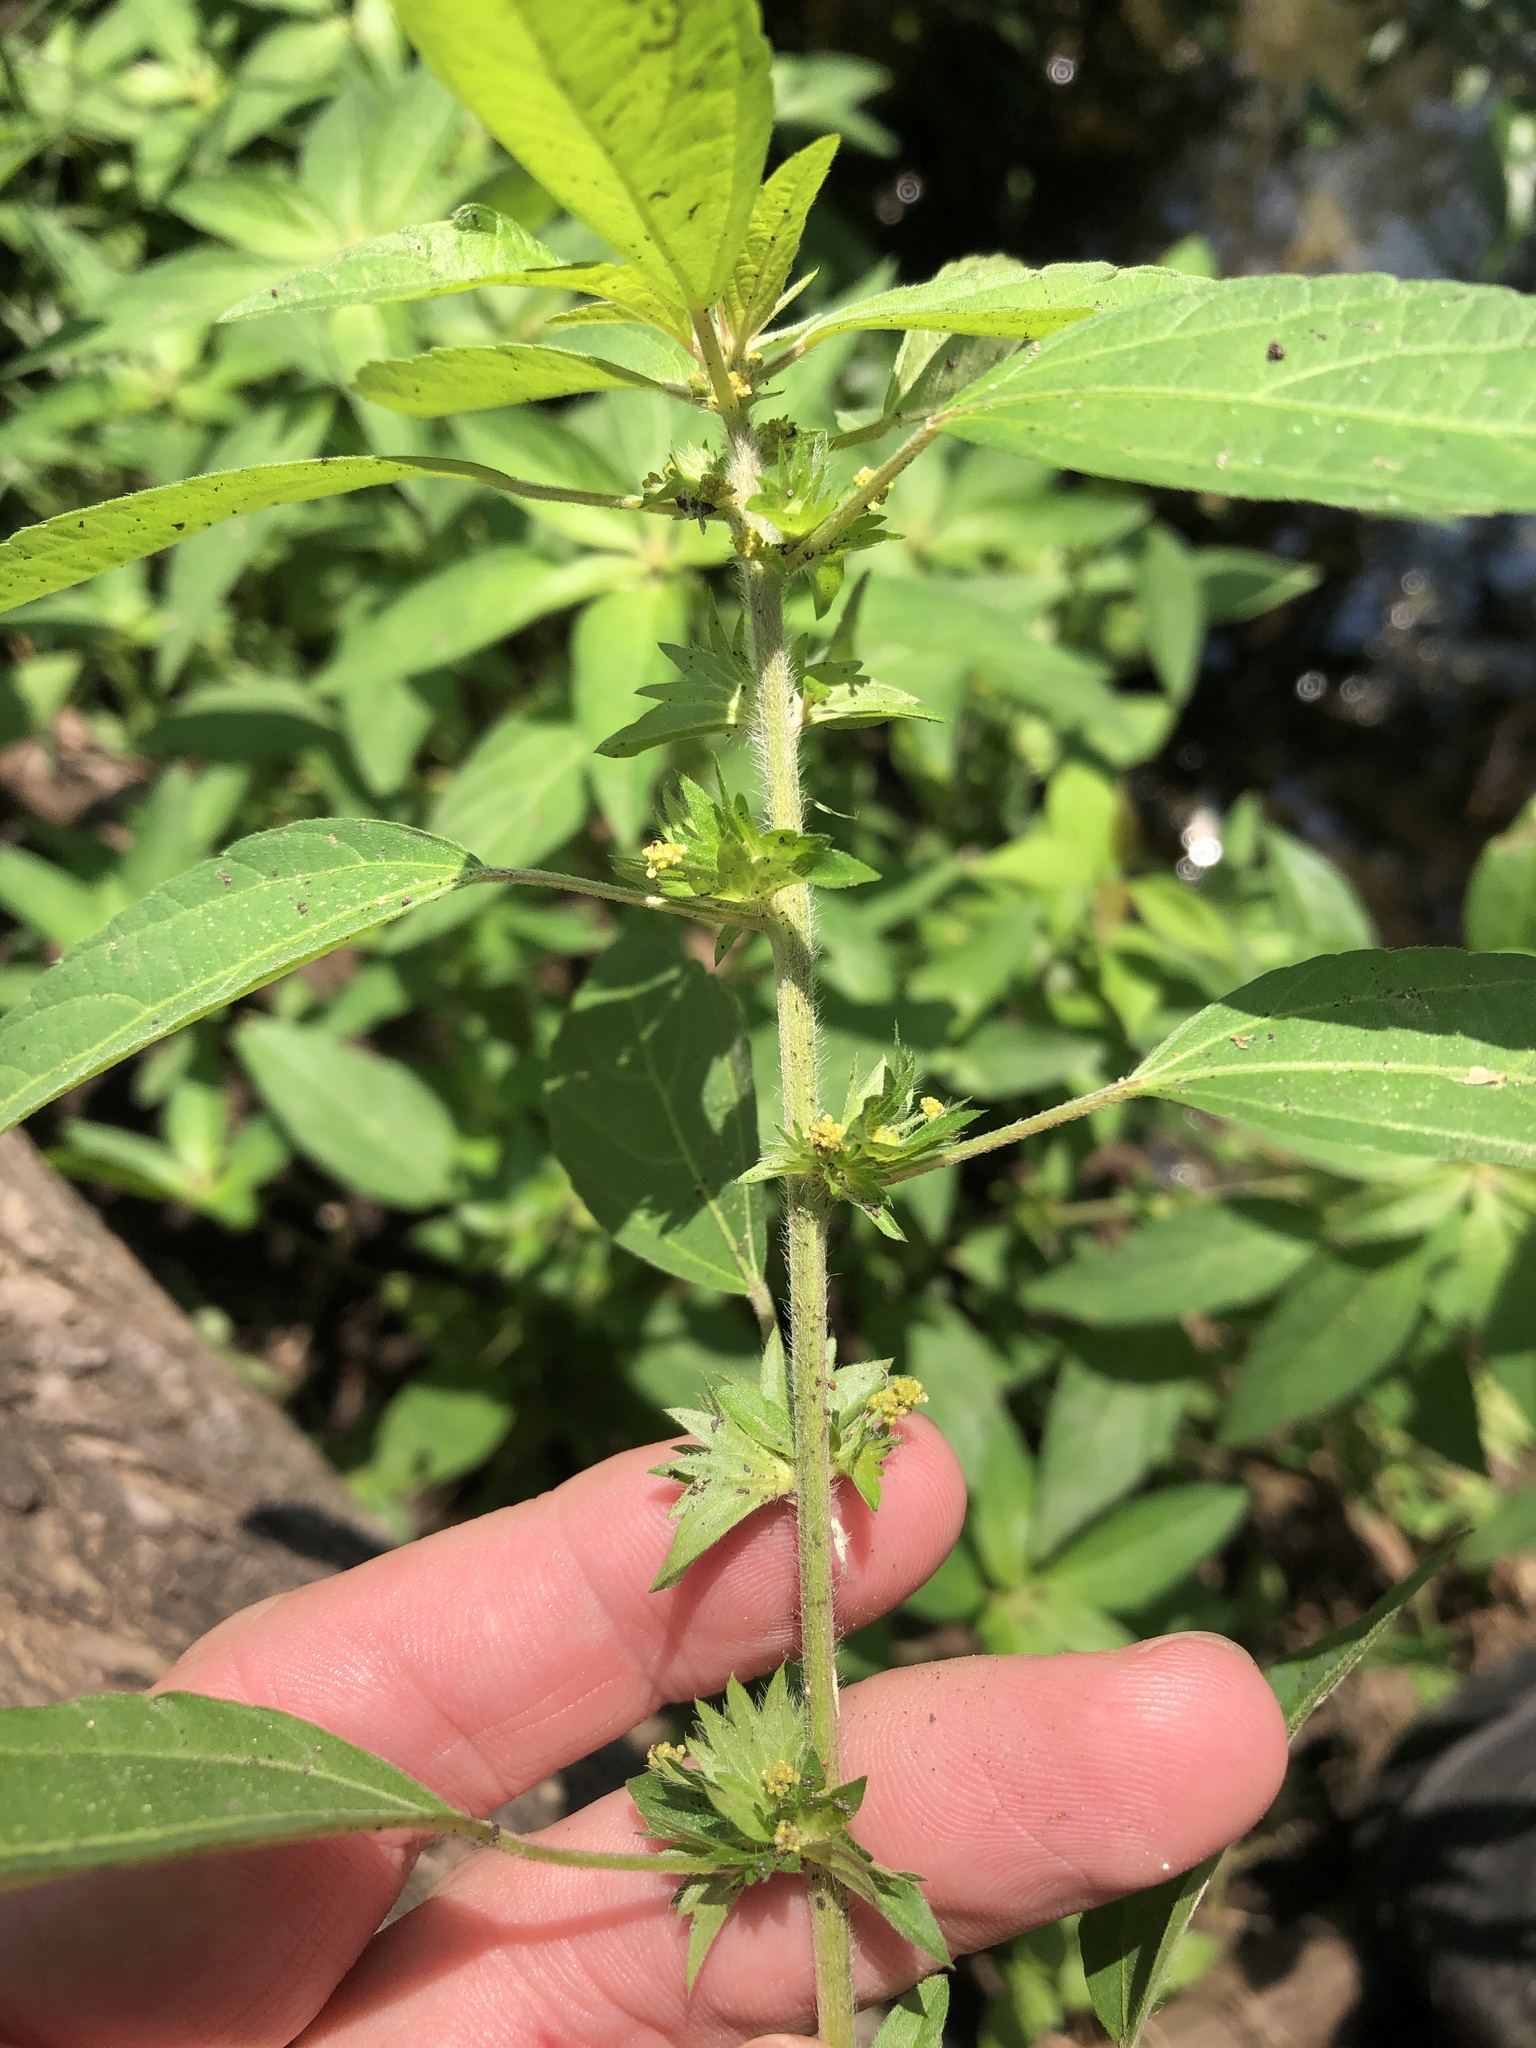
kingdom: Plantae
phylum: Tracheophyta
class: Magnoliopsida
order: Malpighiales
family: Euphorbiaceae
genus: Acalypha
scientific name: Acalypha virginica
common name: Virginia copperleaf
